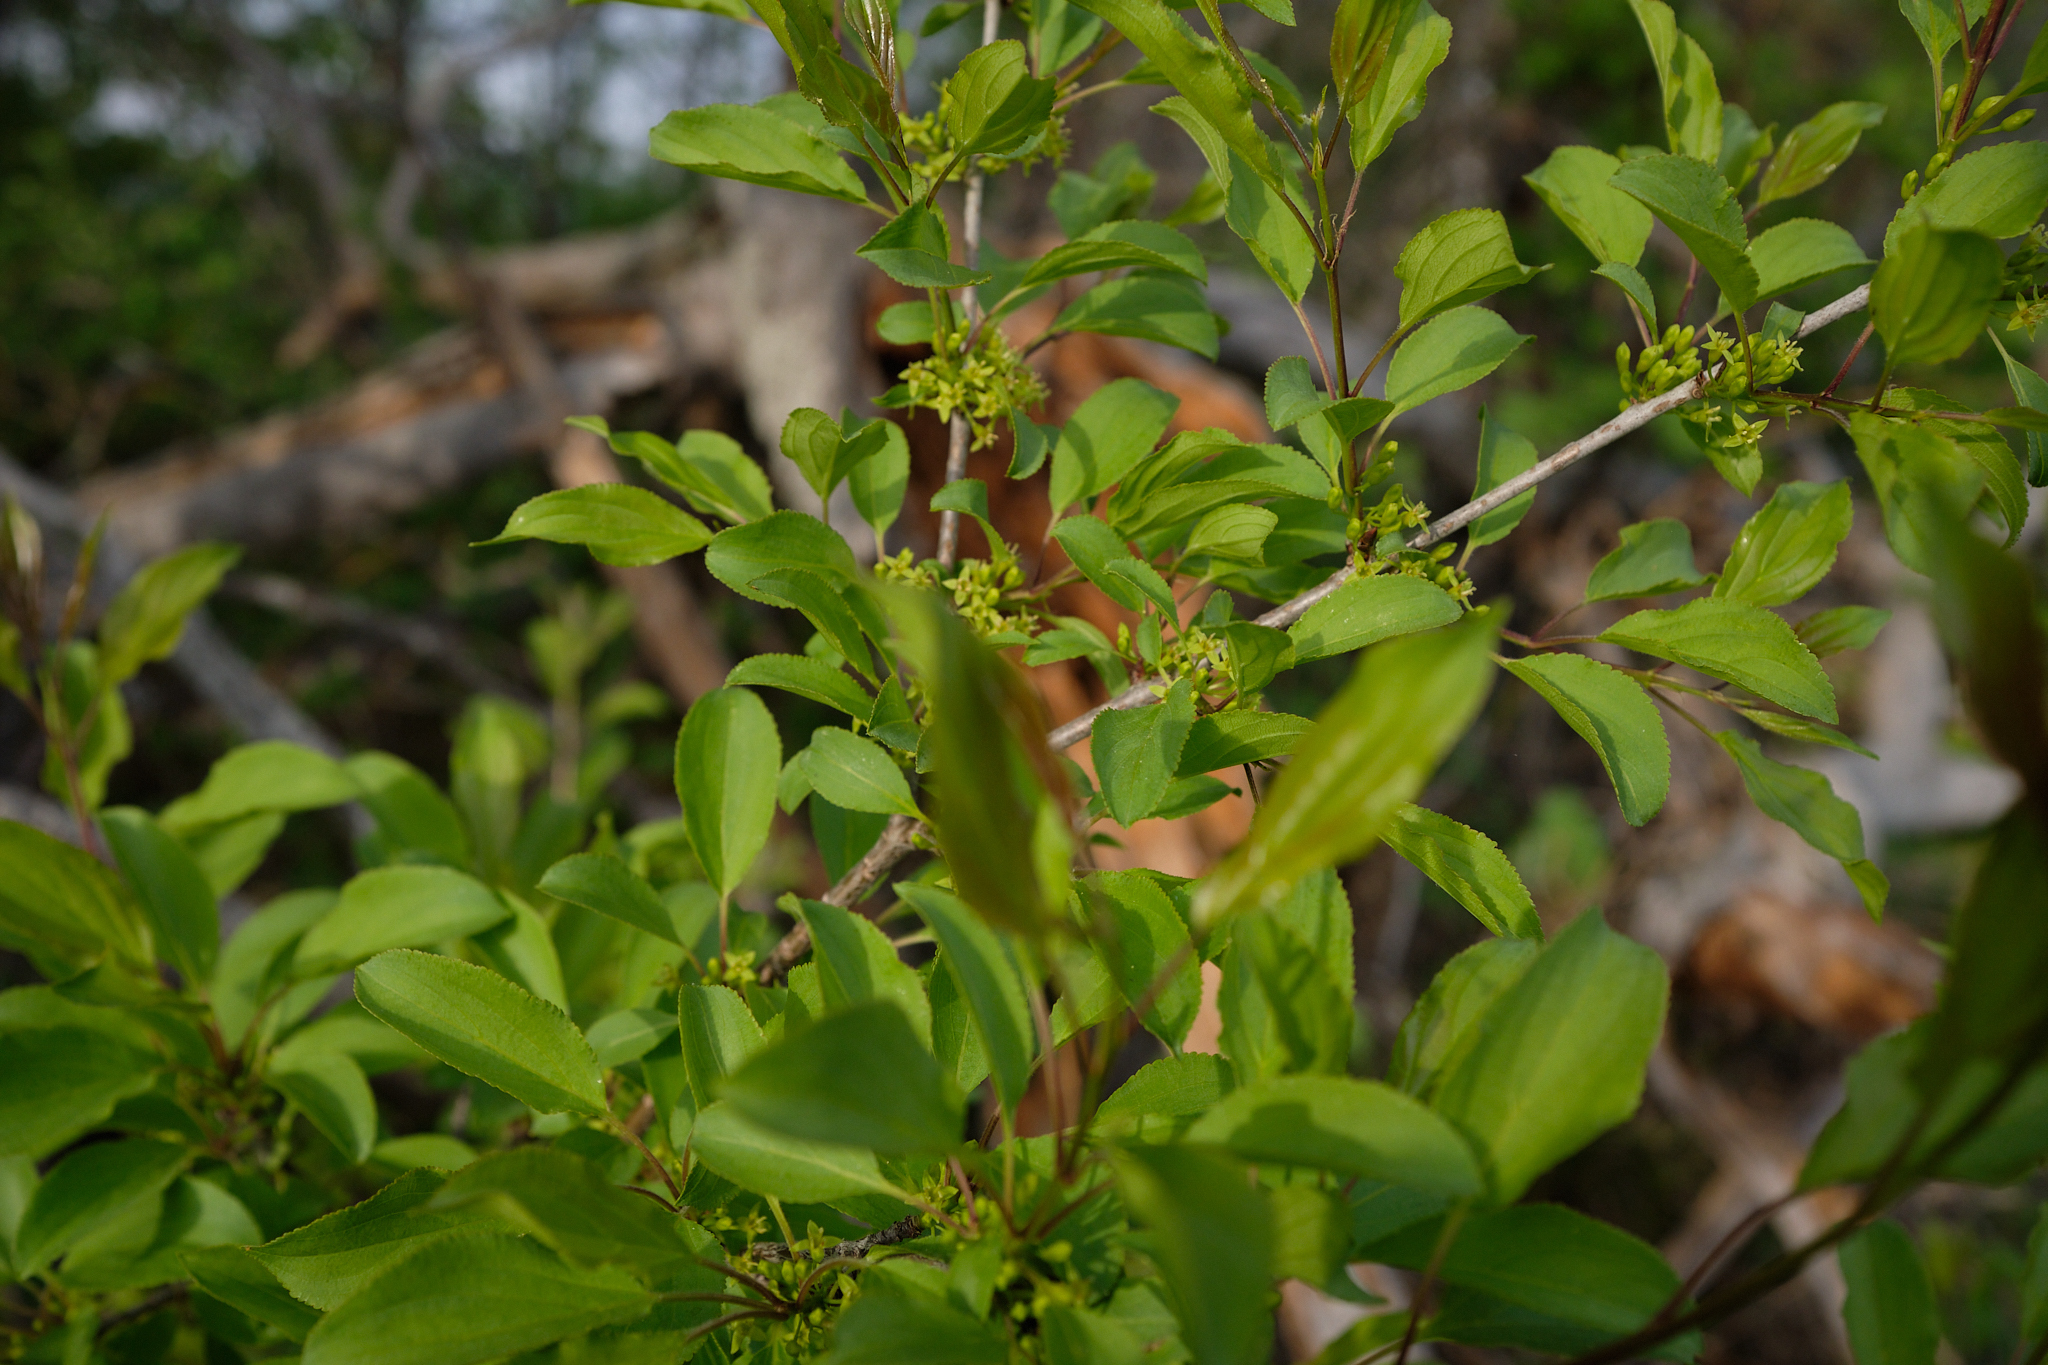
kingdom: Plantae
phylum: Tracheophyta
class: Magnoliopsida
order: Rosales
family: Rhamnaceae
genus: Rhamnus
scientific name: Rhamnus cathartica
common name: Common buckthorn
